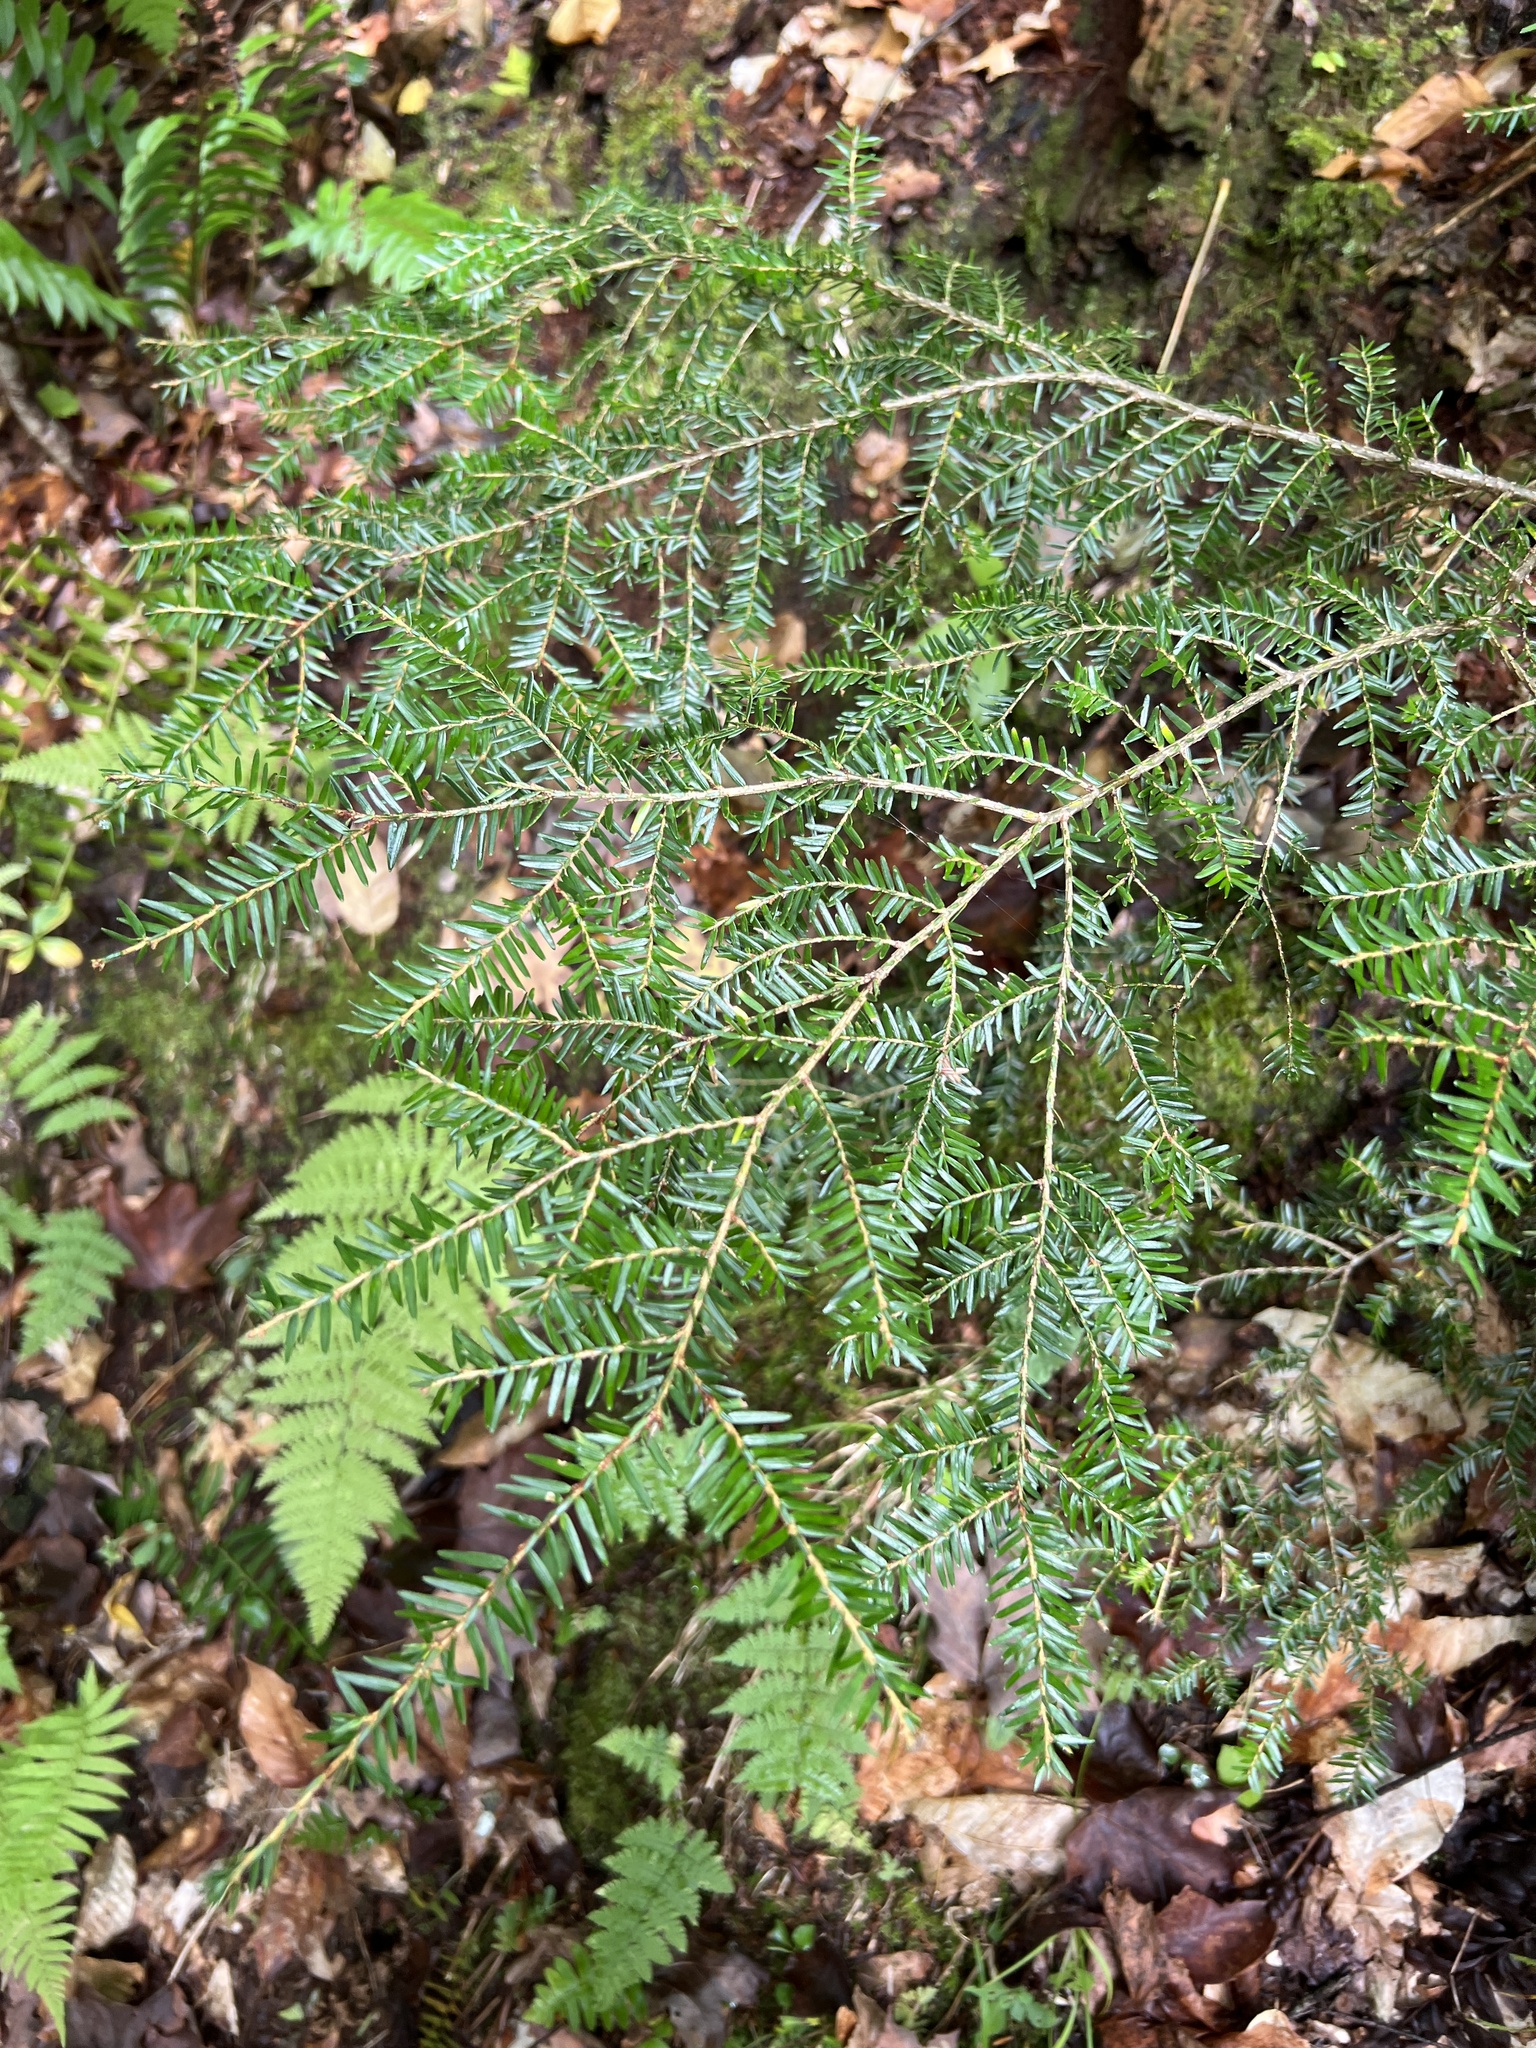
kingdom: Plantae
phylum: Tracheophyta
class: Pinopsida
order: Pinales
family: Pinaceae
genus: Tsuga
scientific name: Tsuga canadensis
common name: Eastern hemlock
